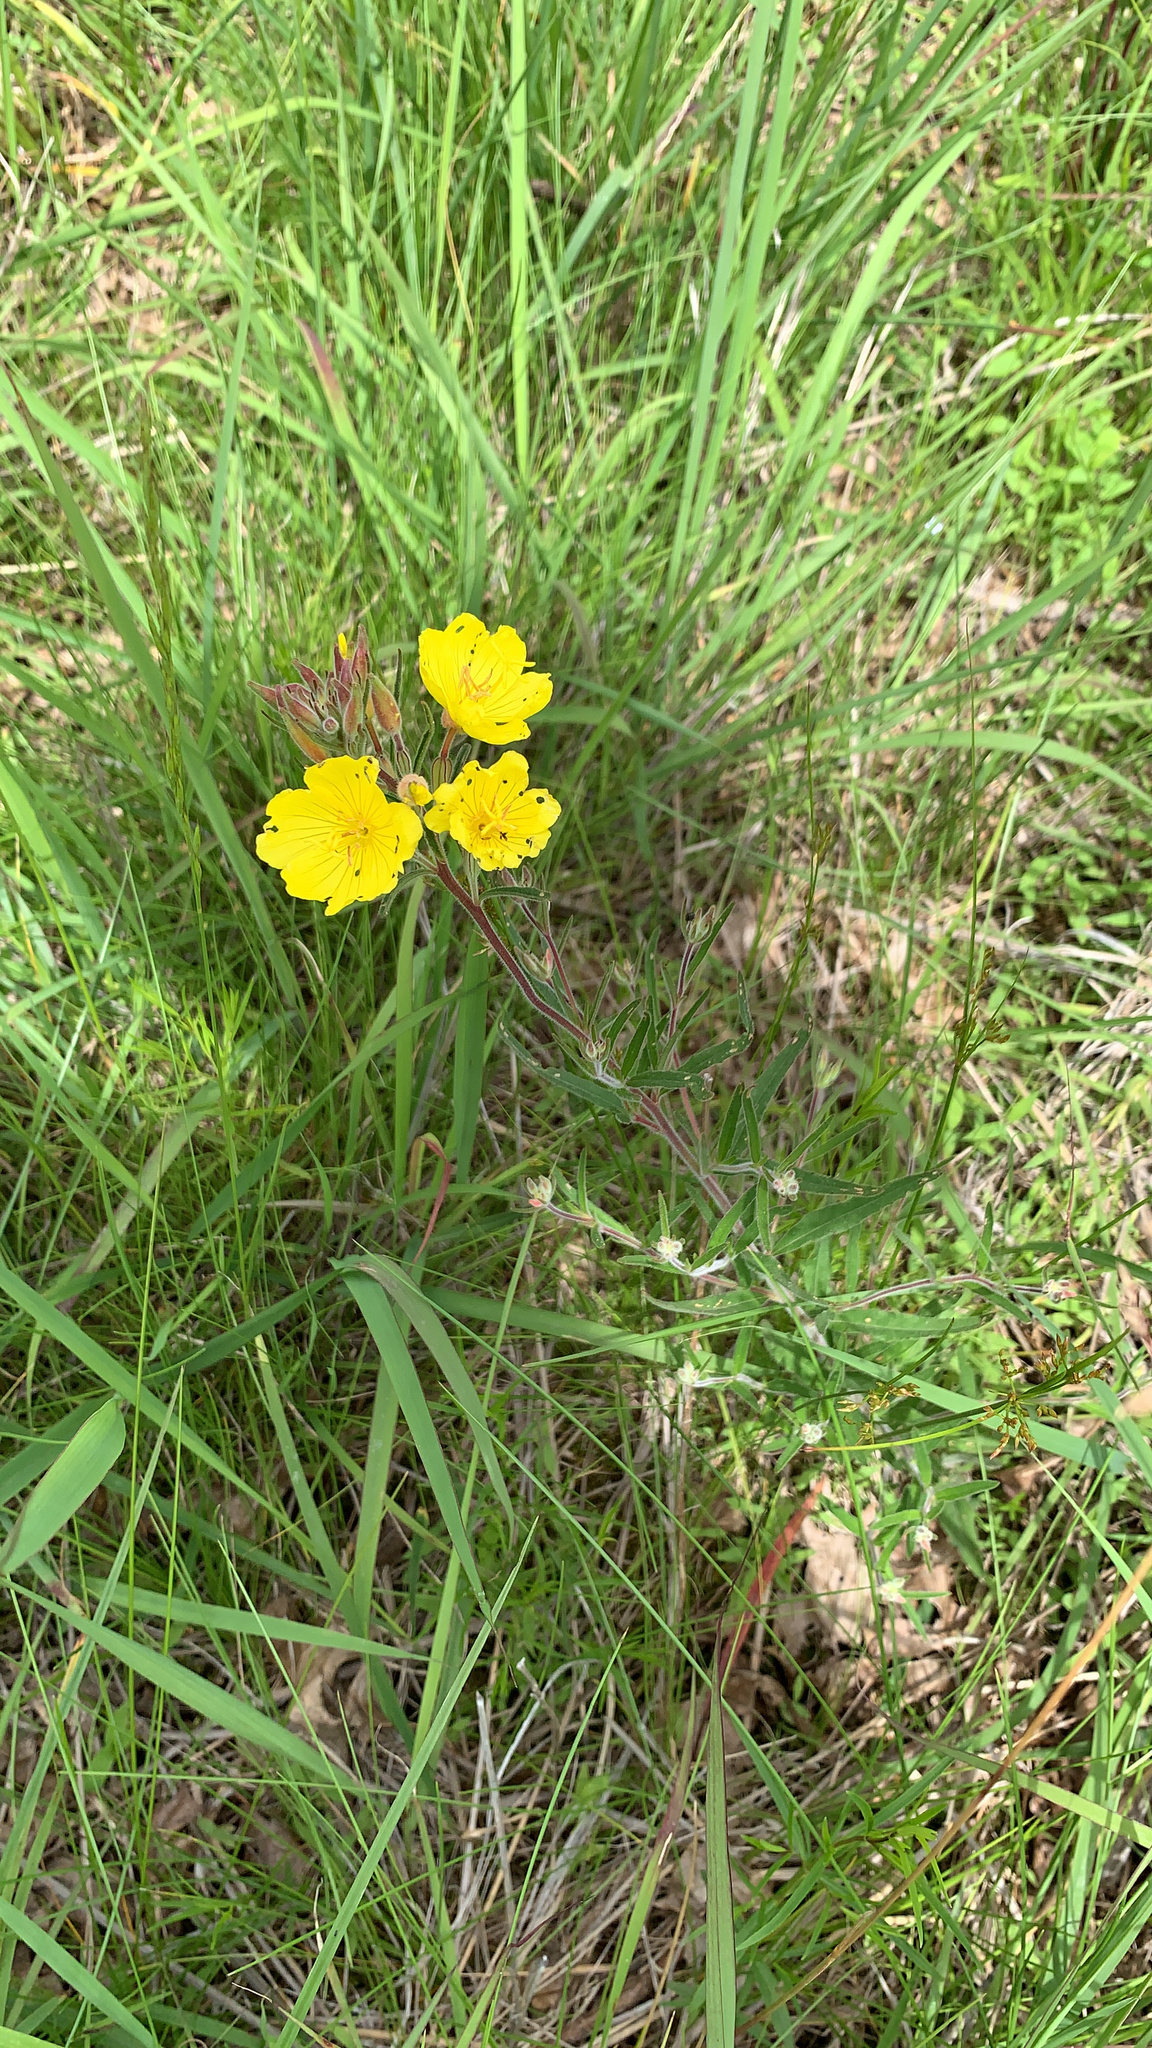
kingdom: Plantae
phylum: Tracheophyta
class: Magnoliopsida
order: Myrtales
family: Onagraceae
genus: Oenothera
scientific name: Oenothera fruticosa
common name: Southern sundrops
